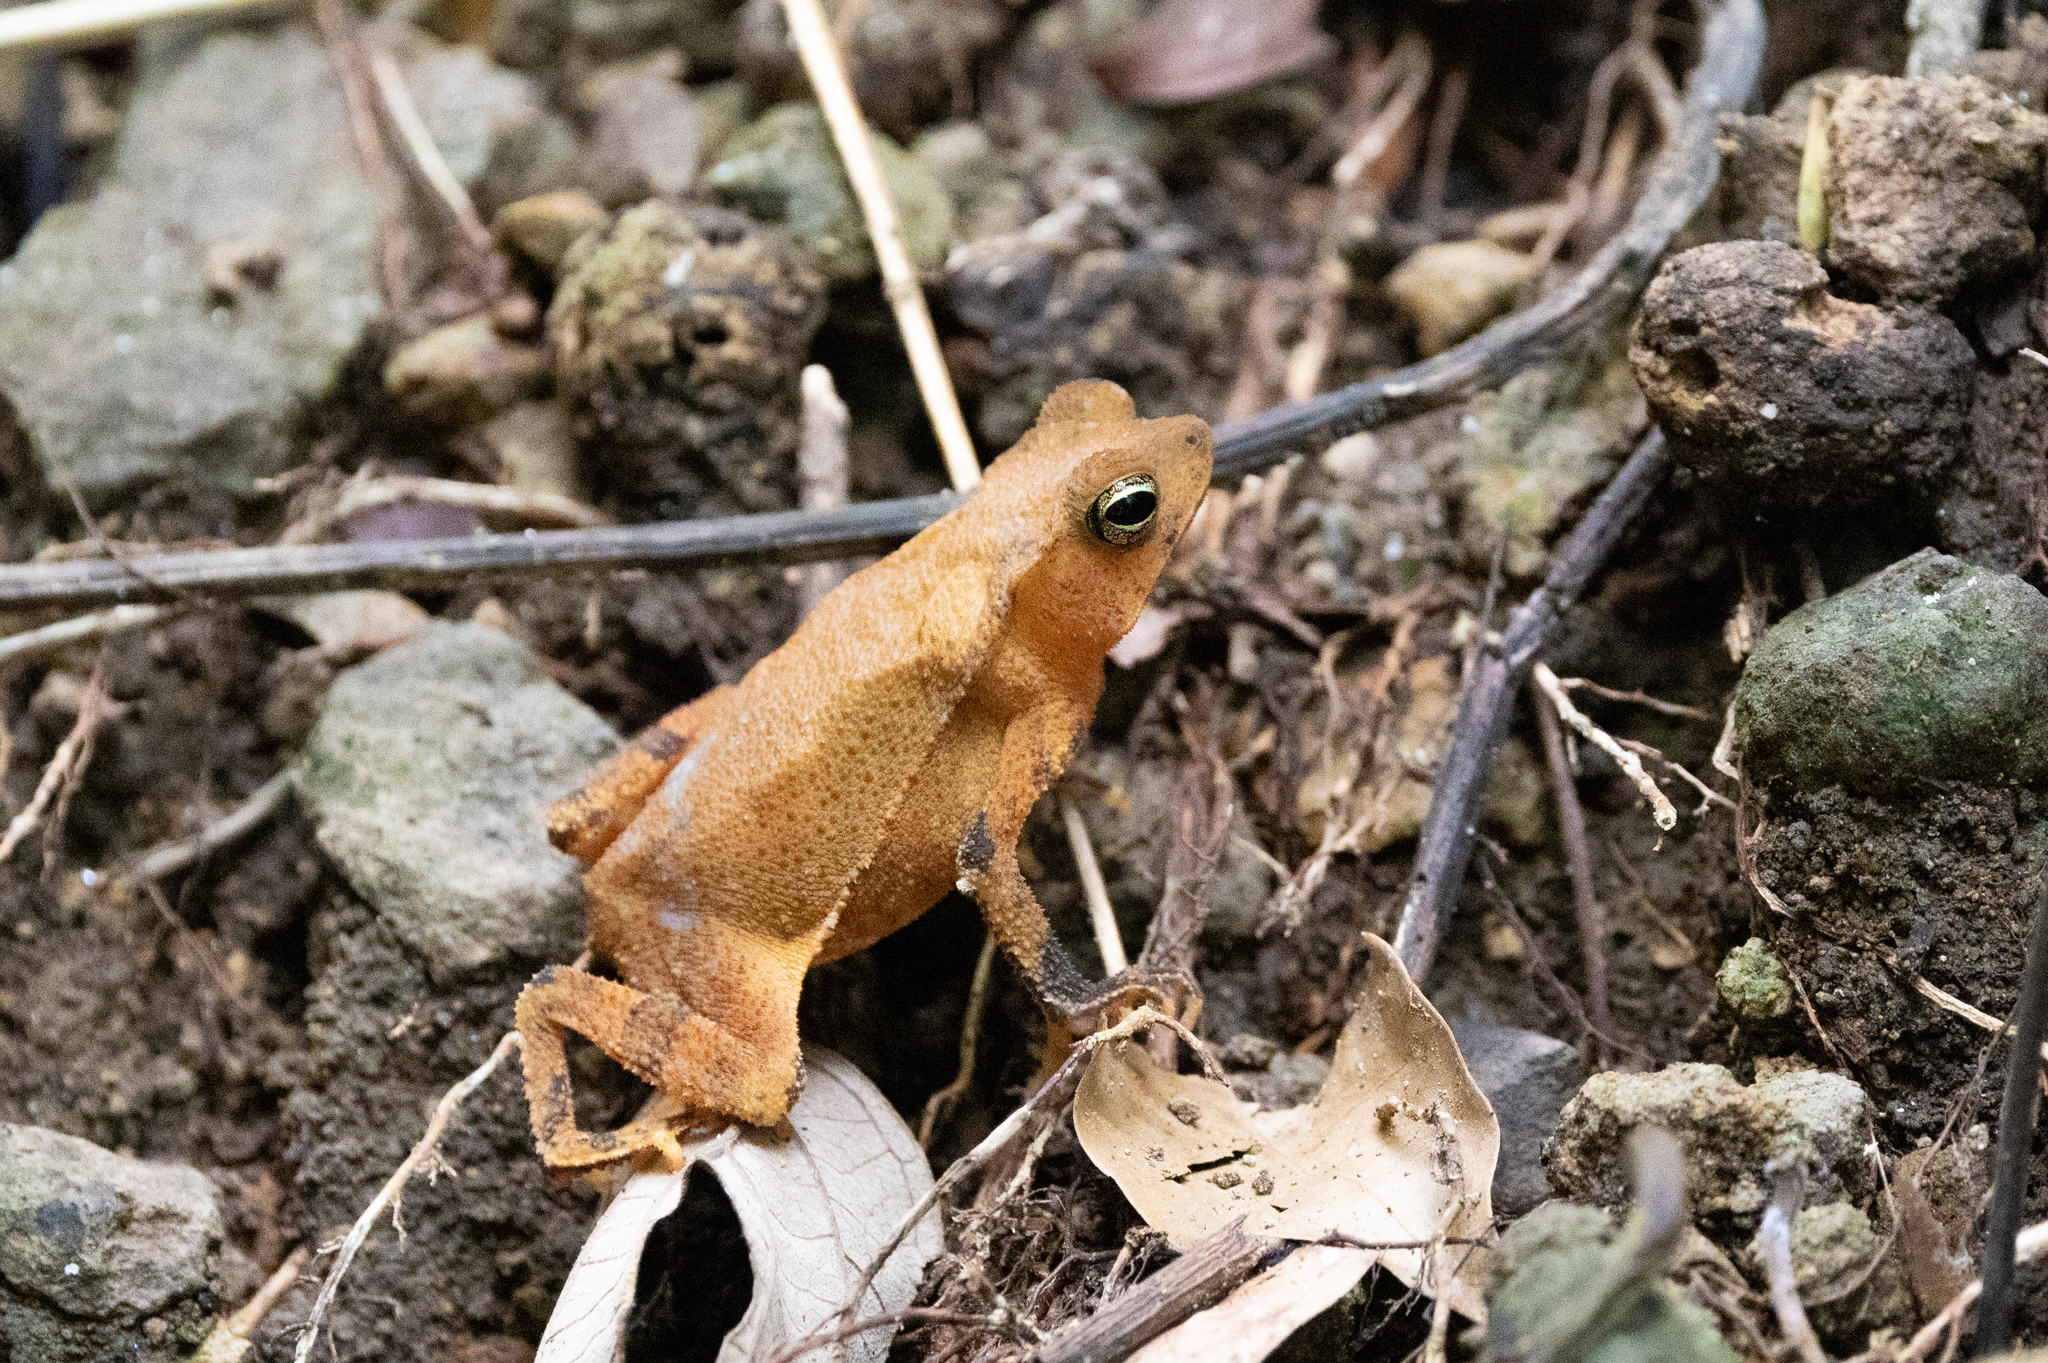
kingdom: Animalia
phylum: Chordata
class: Amphibia
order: Anura
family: Bufonidae
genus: Rhinella
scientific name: Rhinella alata
